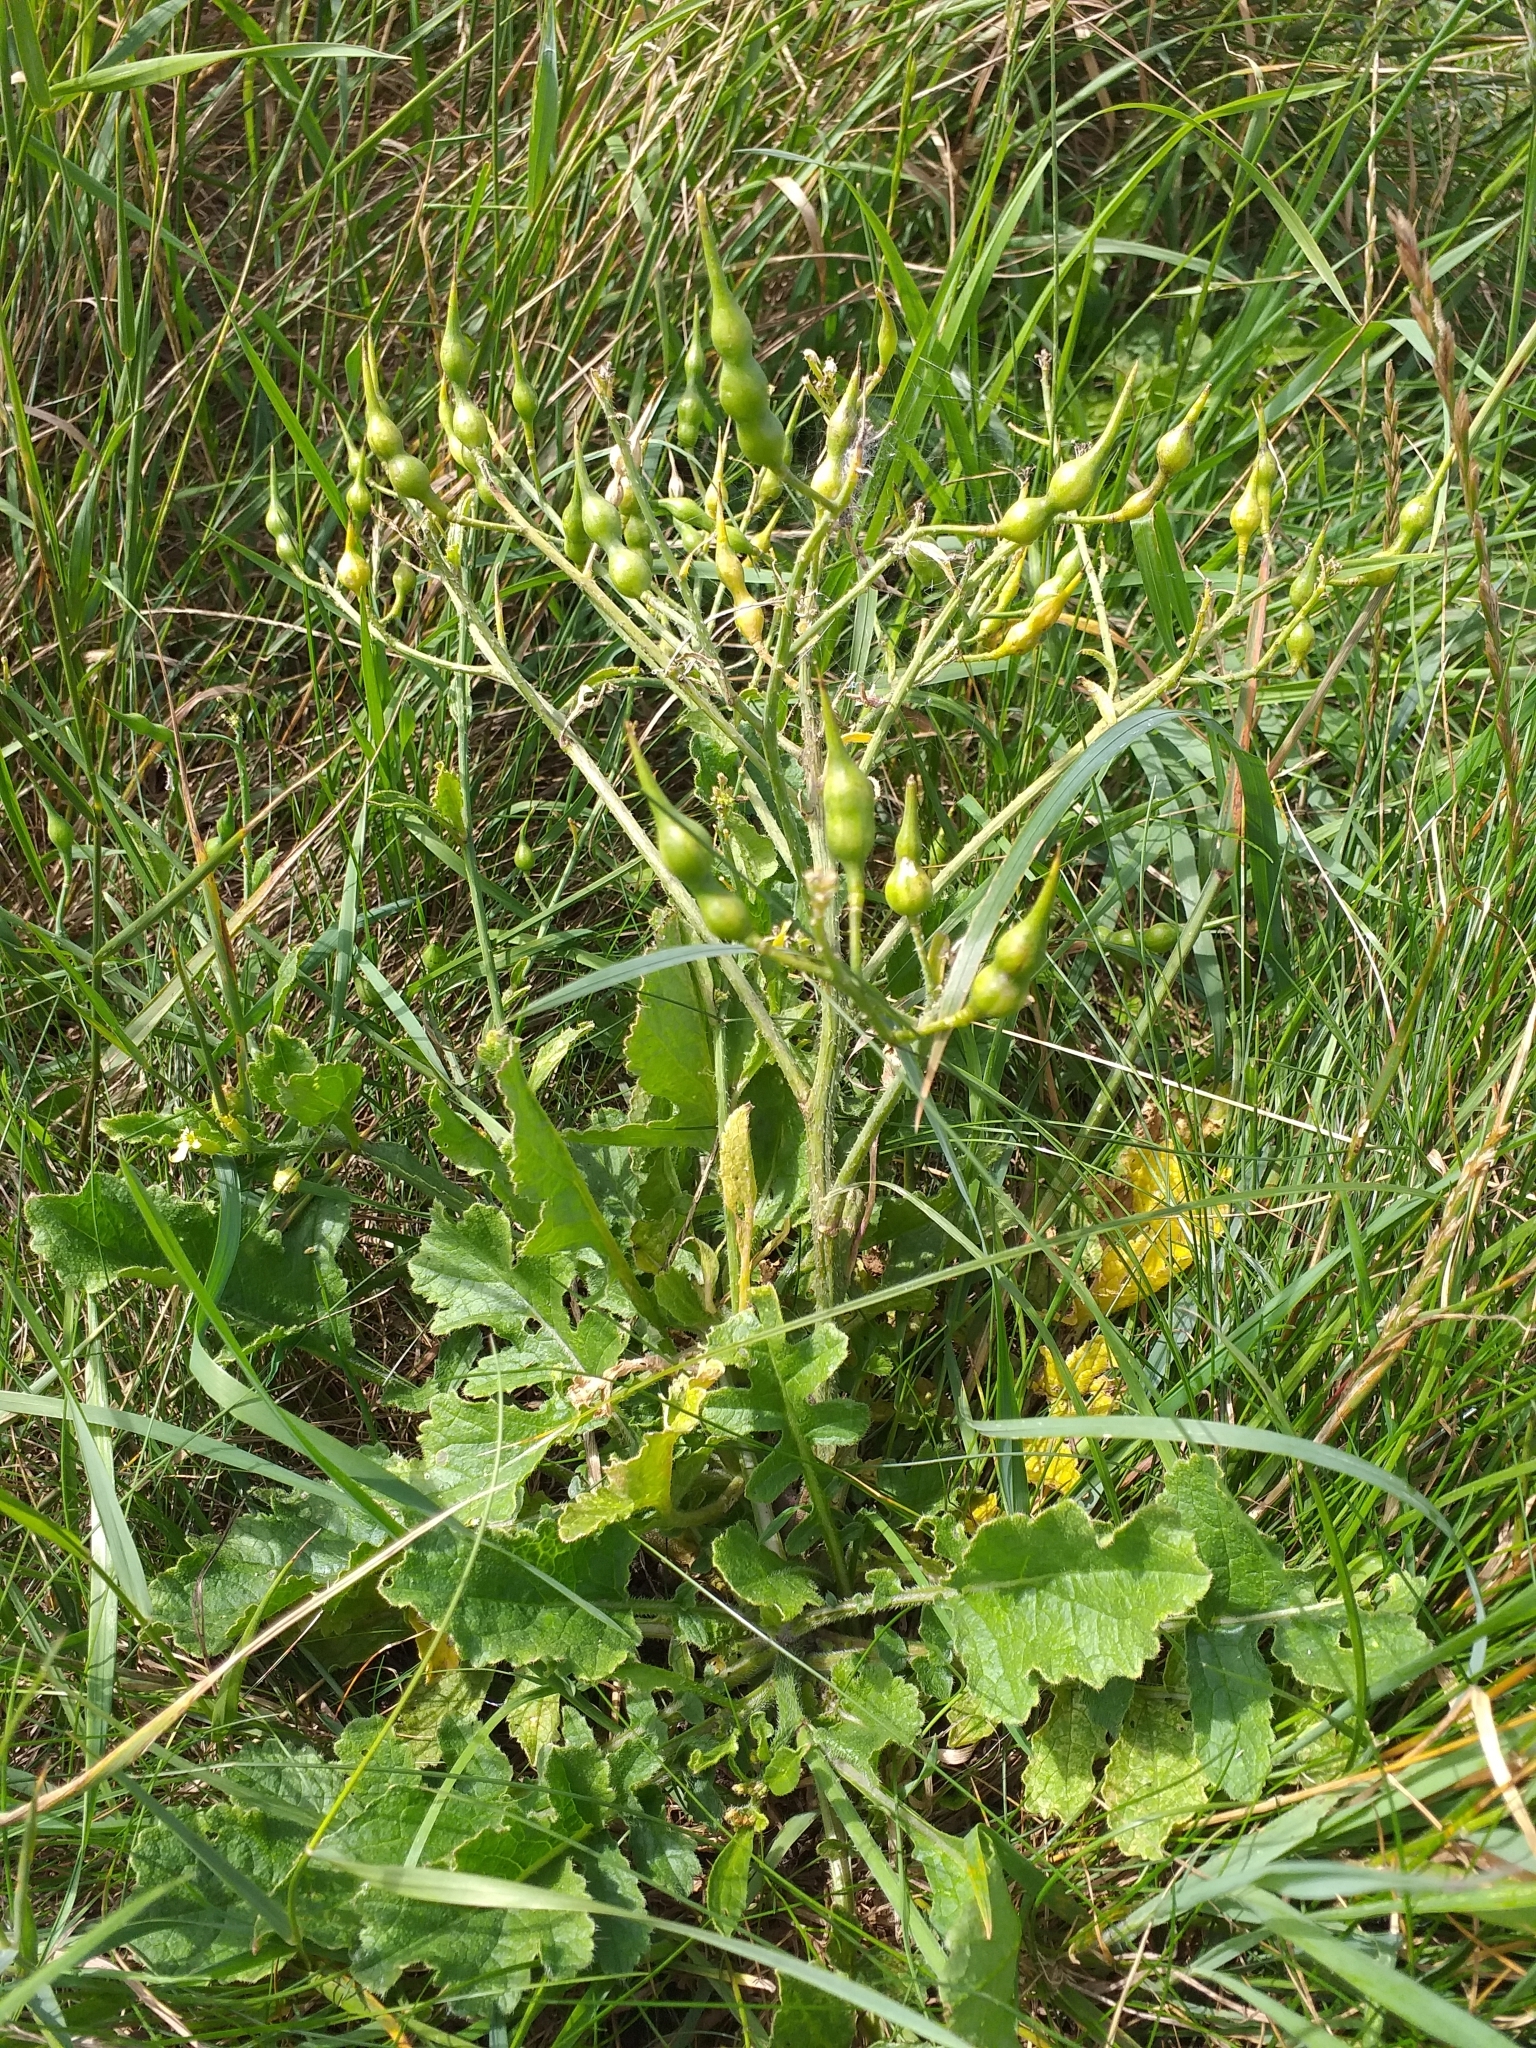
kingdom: Plantae
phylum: Tracheophyta
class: Magnoliopsida
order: Brassicales
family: Brassicaceae
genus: Raphanus
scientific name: Raphanus raphanistrum
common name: Wild radish
